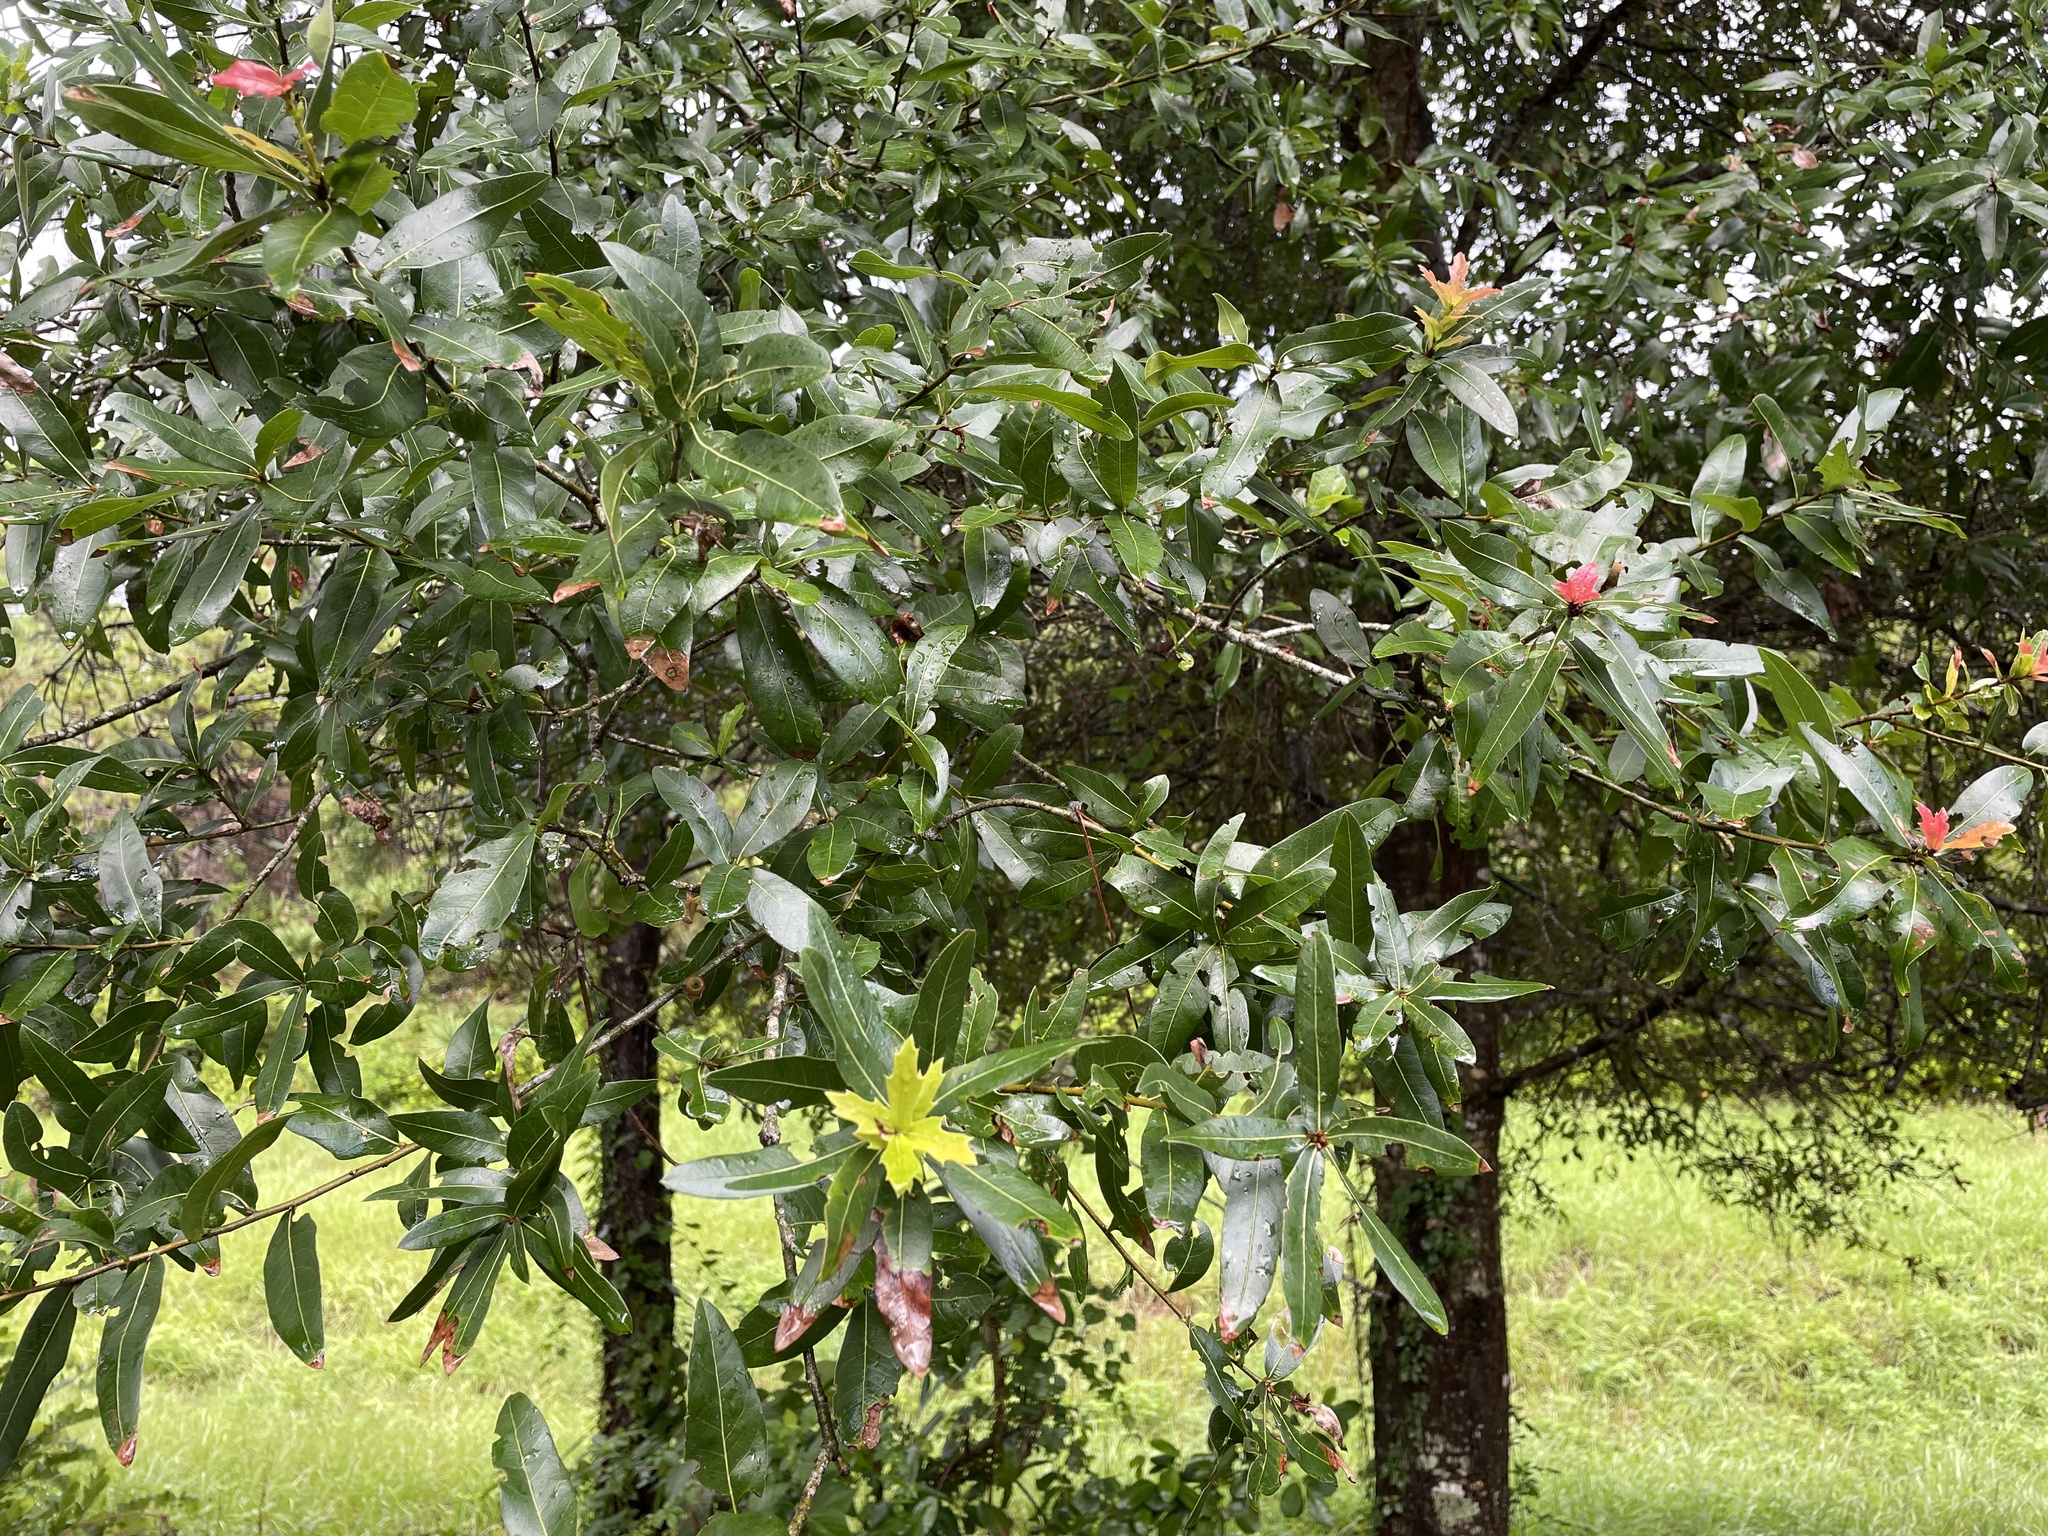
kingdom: Plantae
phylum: Tracheophyta
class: Magnoliopsida
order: Fagales
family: Fagaceae
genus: Quercus
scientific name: Quercus hemisphaerica
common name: Darlington oak
